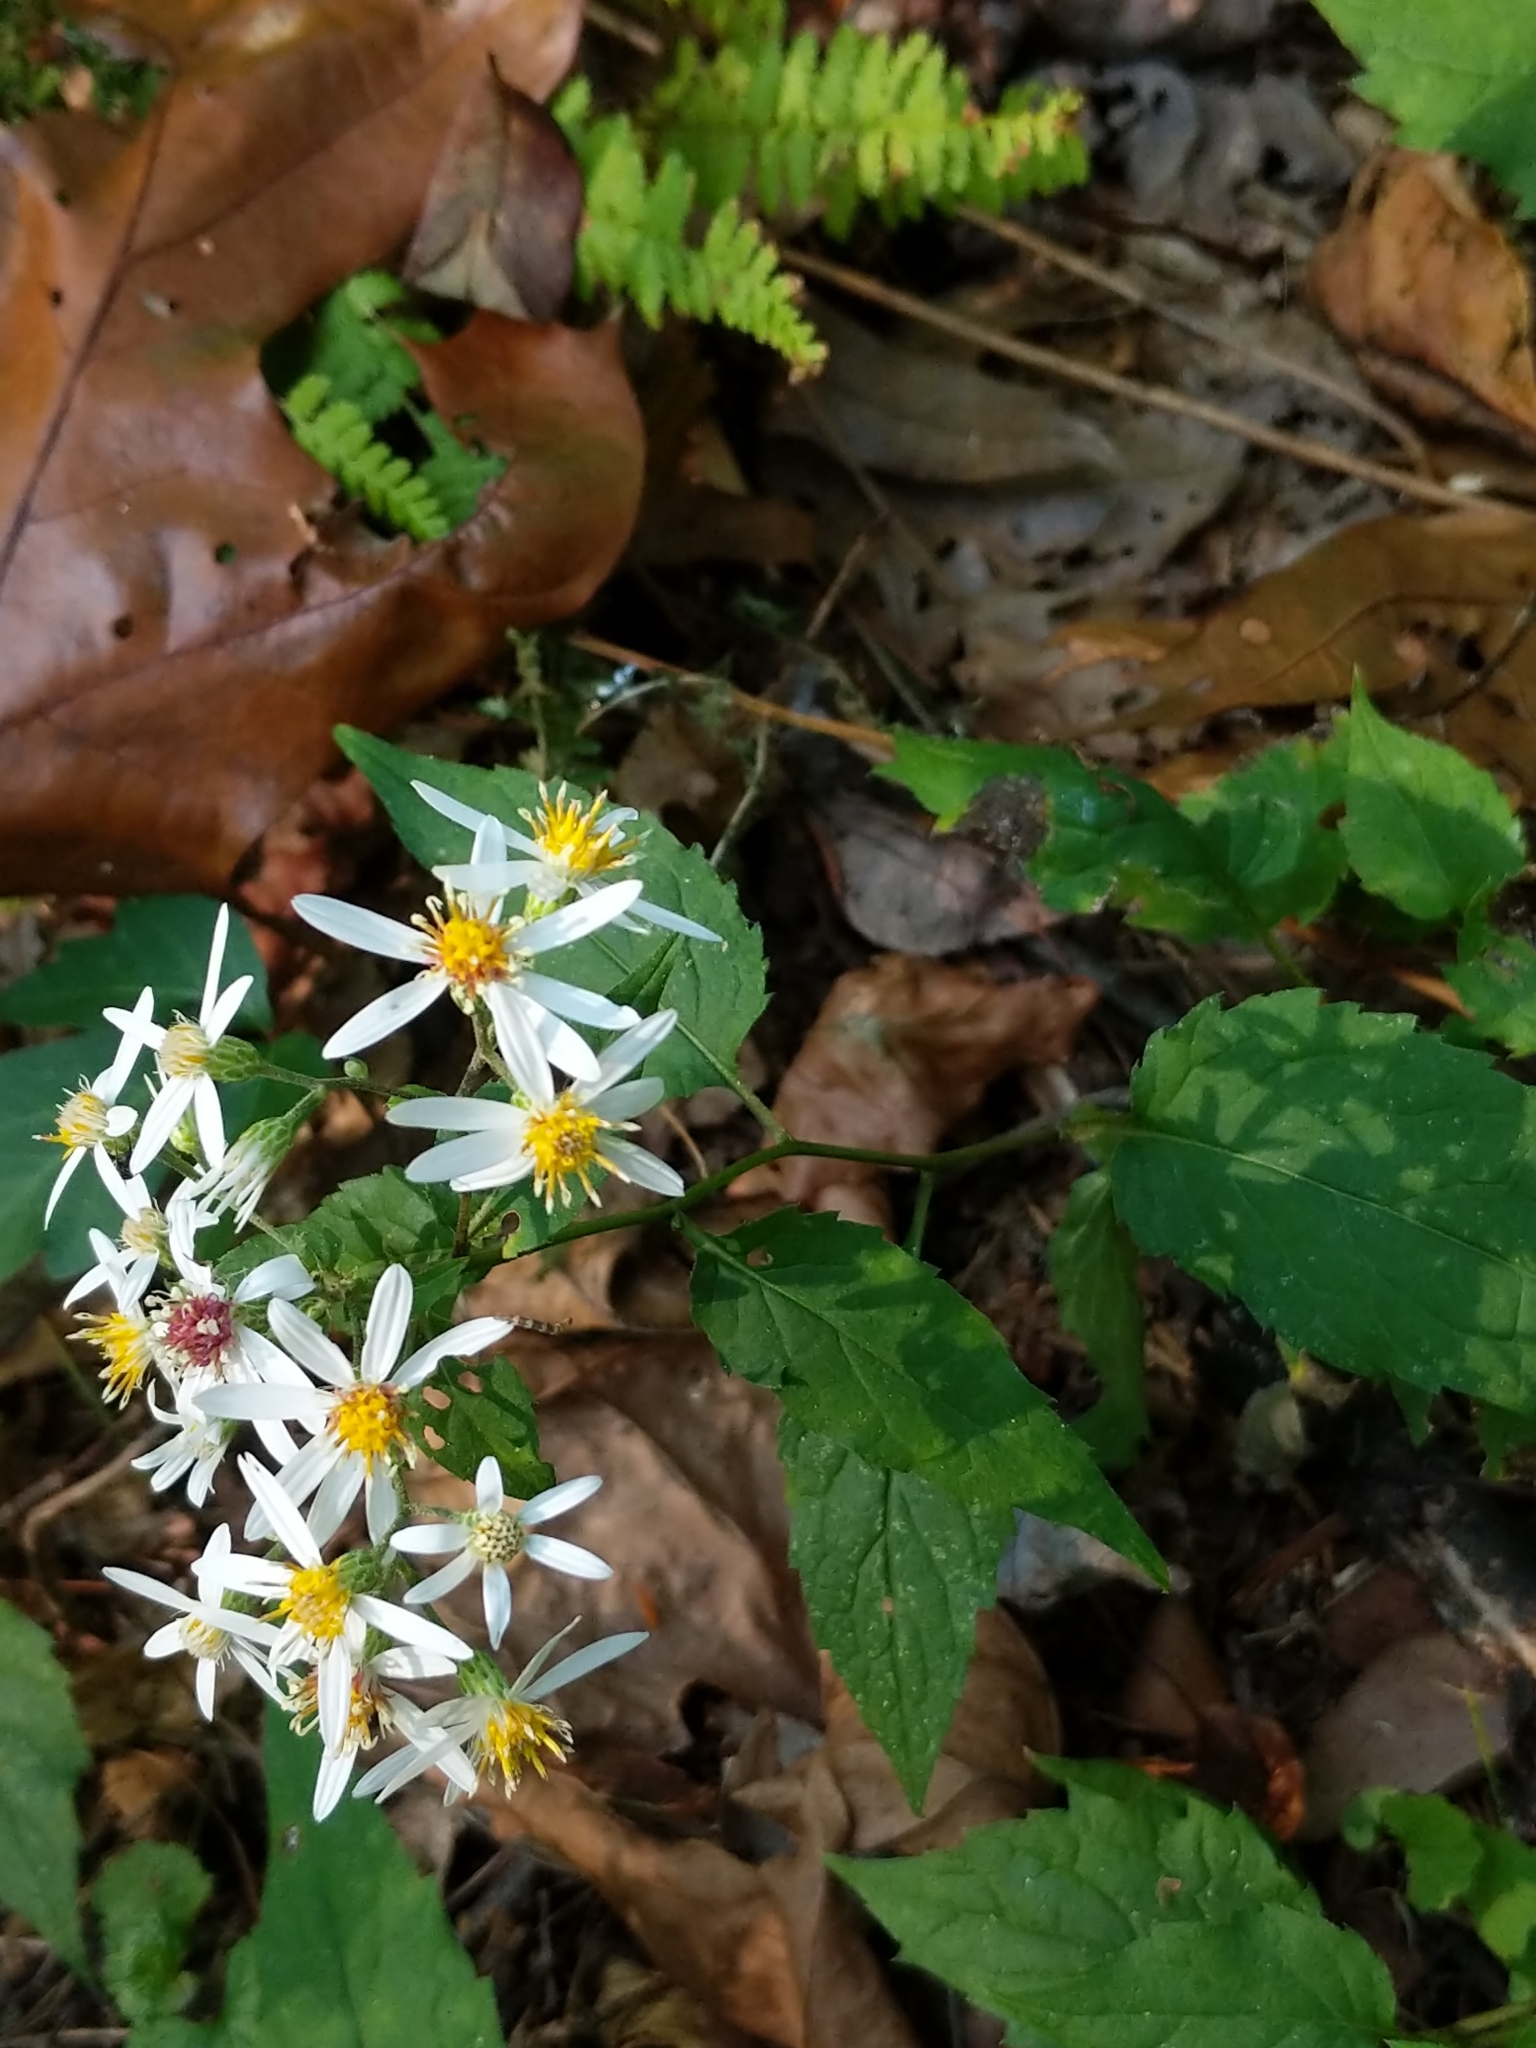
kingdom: Plantae
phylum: Tracheophyta
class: Magnoliopsida
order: Asterales
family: Asteraceae
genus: Eurybia
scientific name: Eurybia divaricata
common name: White wood aster
